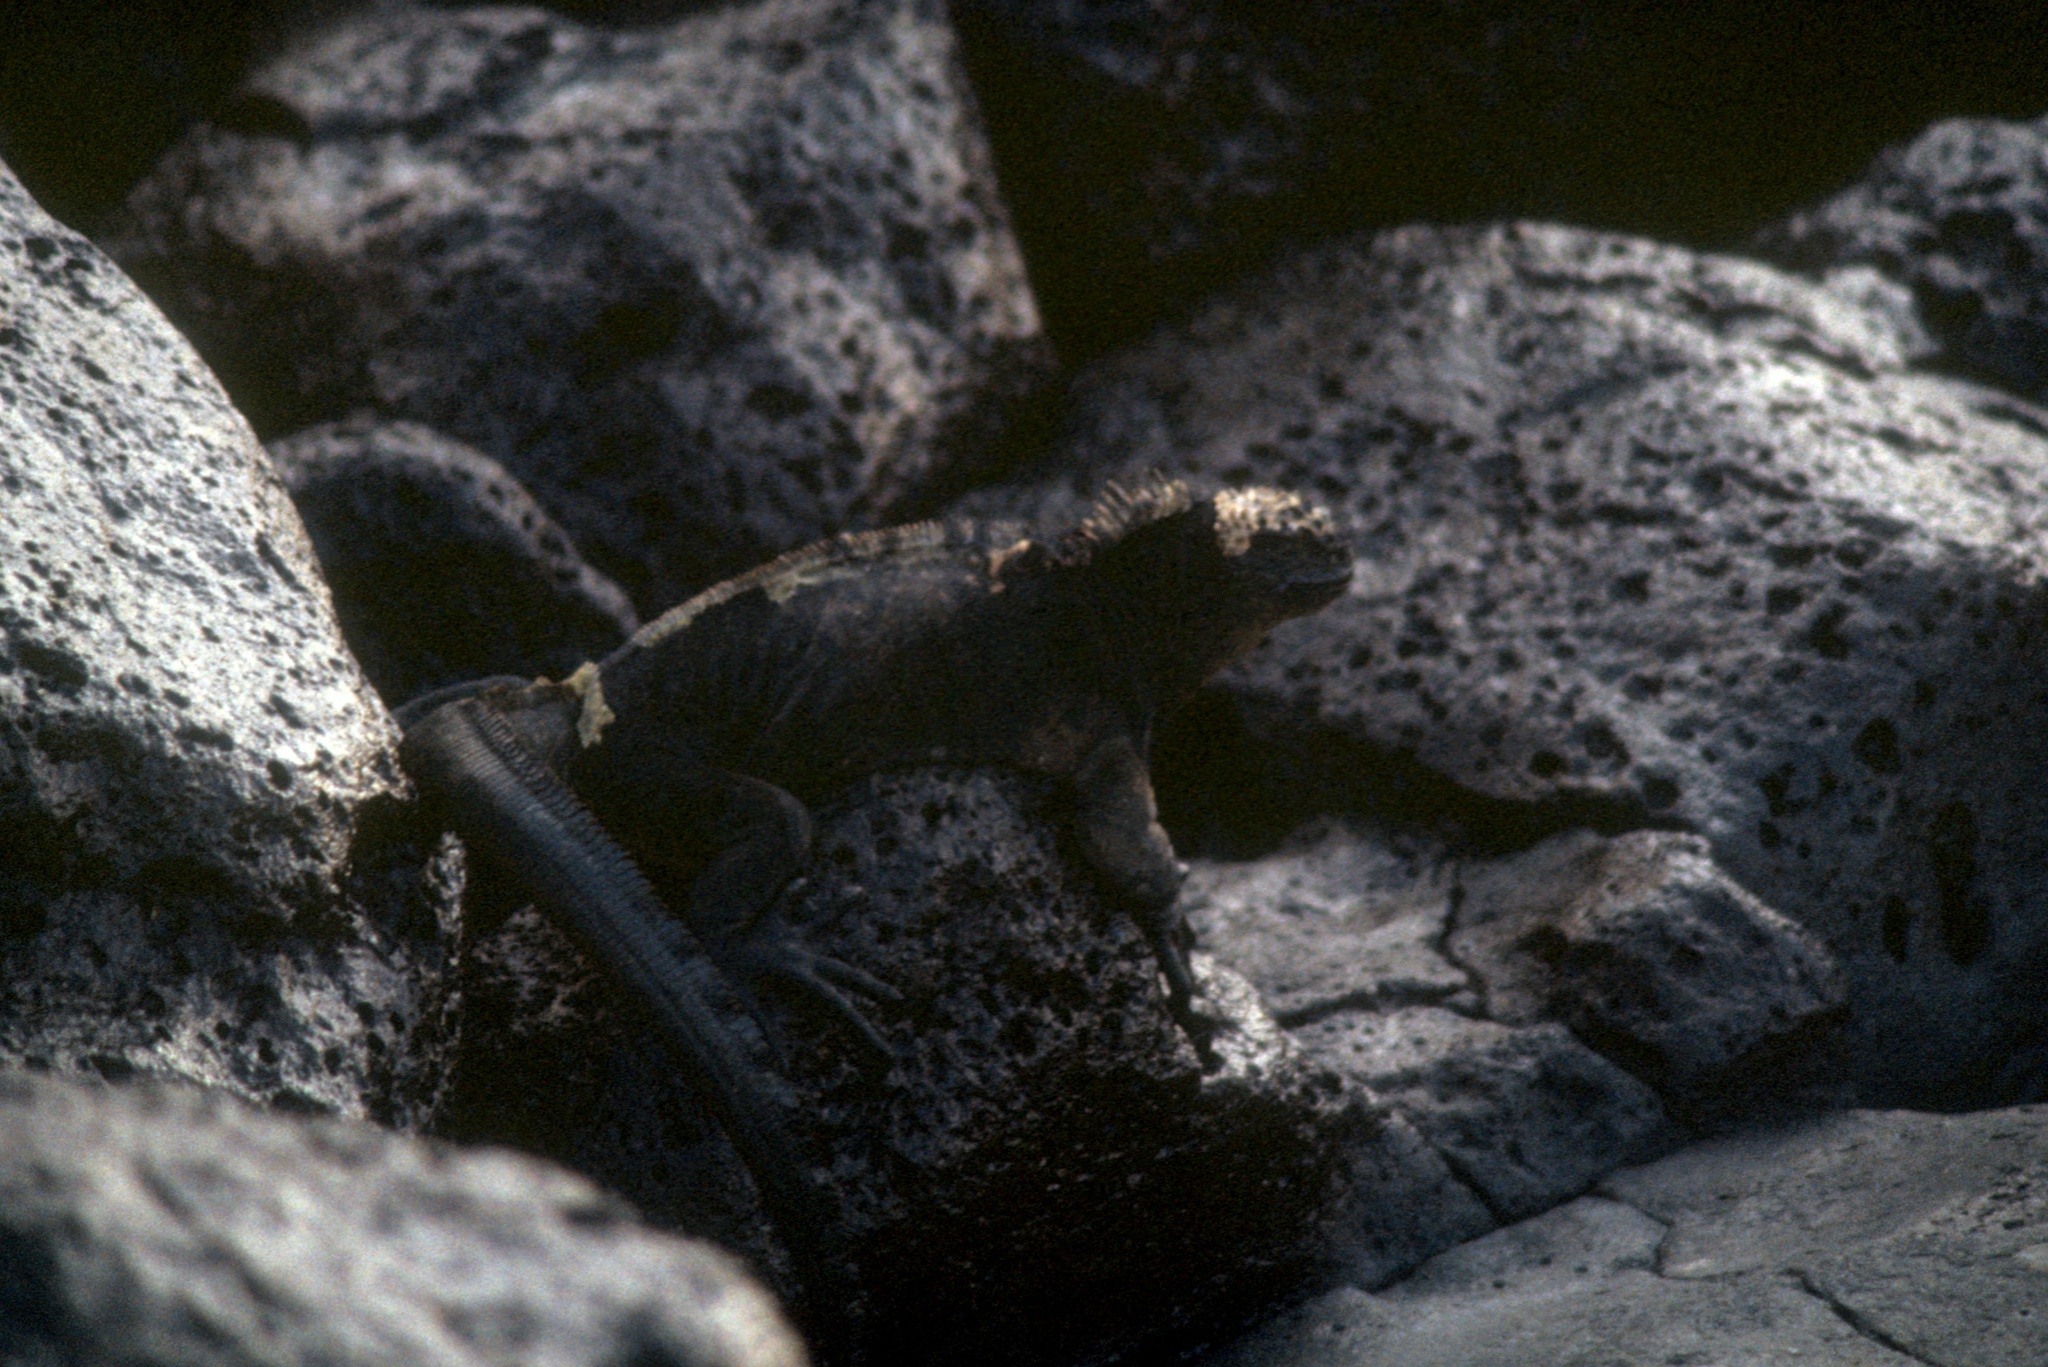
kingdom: Animalia
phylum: Chordata
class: Squamata
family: Iguanidae
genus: Amblyrhynchus
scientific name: Amblyrhynchus cristatus
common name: Marine iguana
